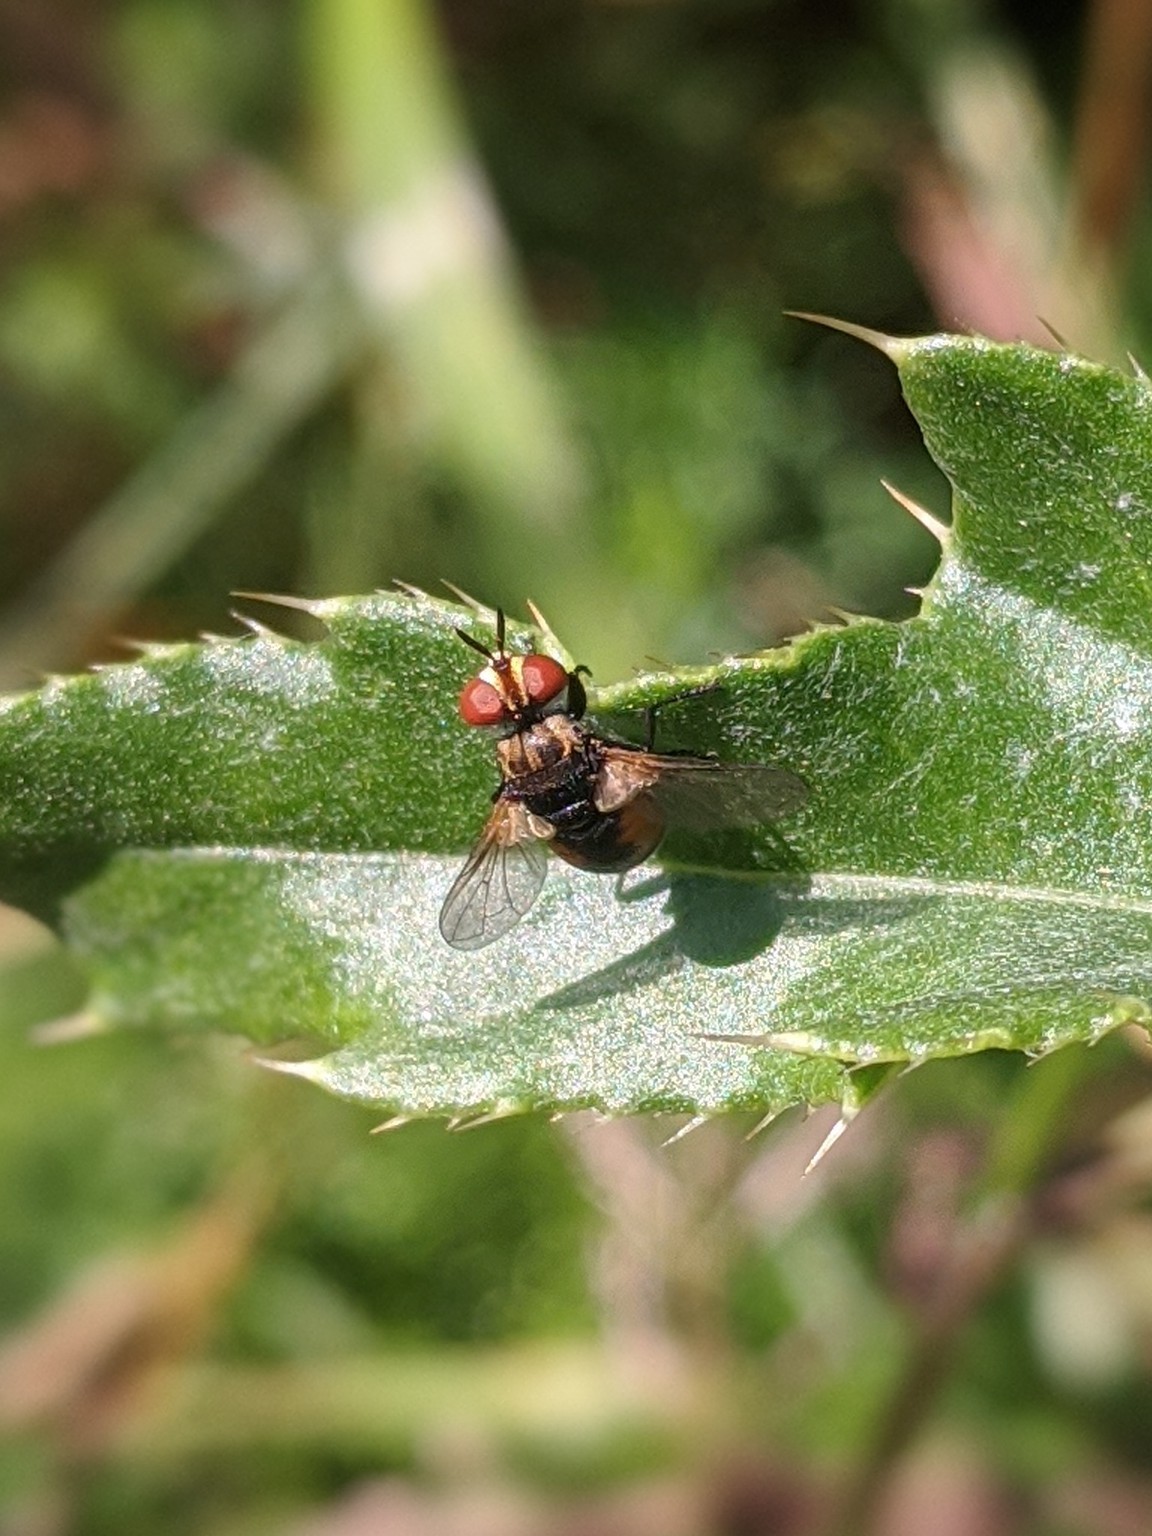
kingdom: Animalia
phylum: Arthropoda
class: Insecta
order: Diptera
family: Tachinidae
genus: Gymnoclytia
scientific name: Gymnoclytia
